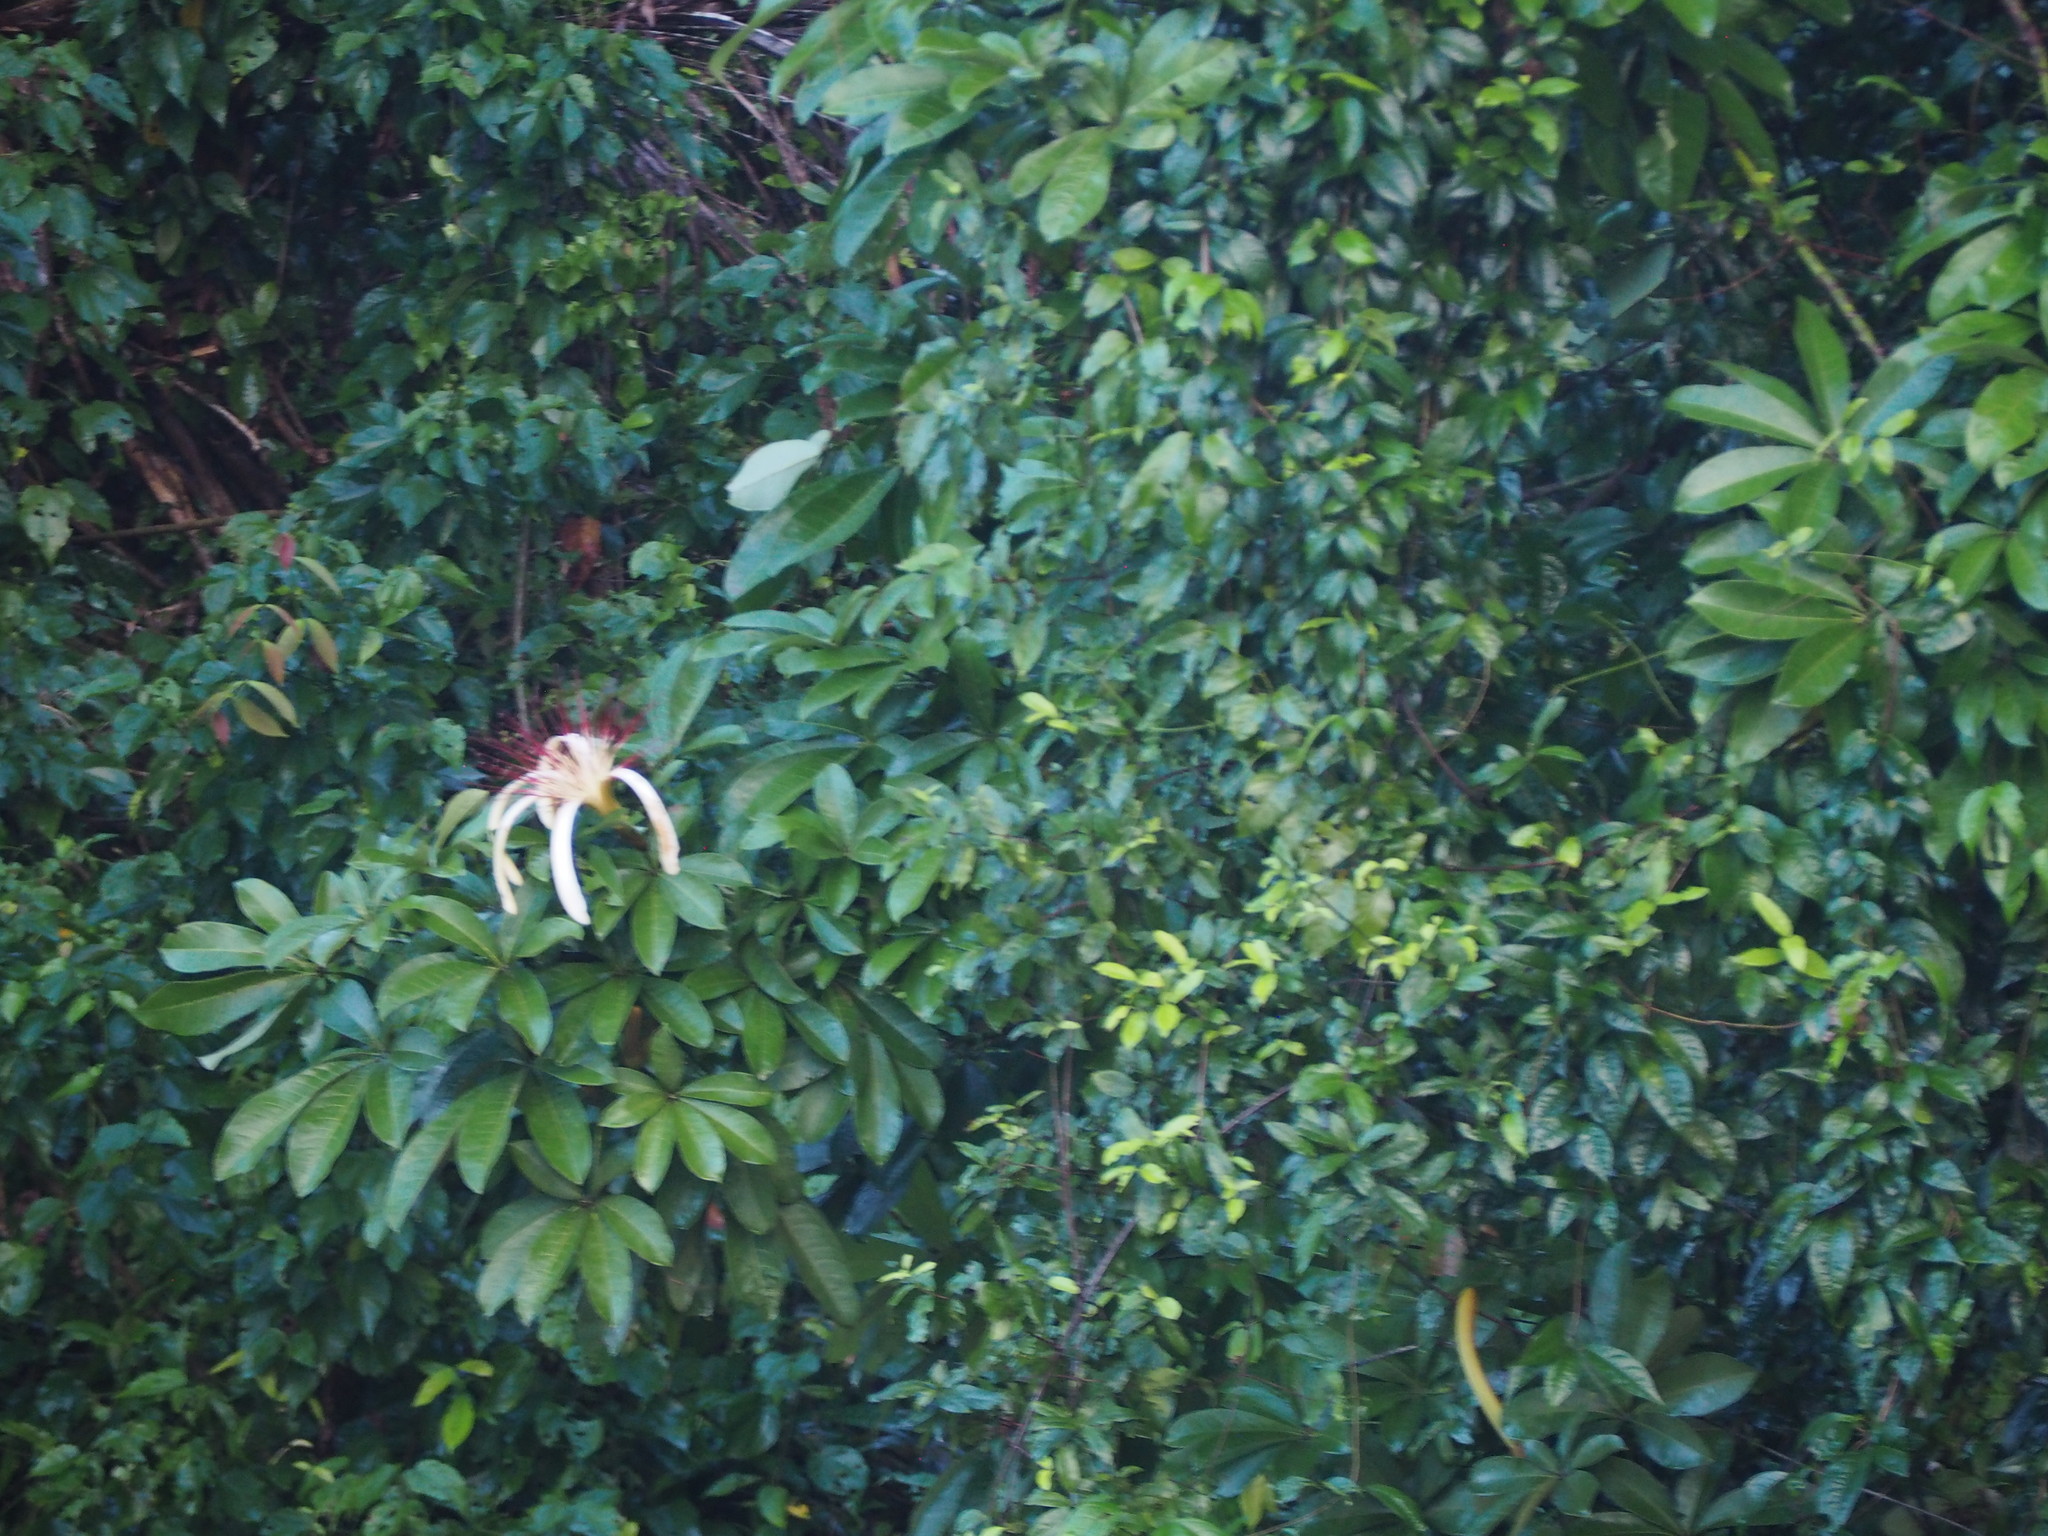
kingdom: Plantae
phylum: Tracheophyta
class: Magnoliopsida
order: Malvales
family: Malvaceae
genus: Pachira
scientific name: Pachira aquatica
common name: Provision-tree
